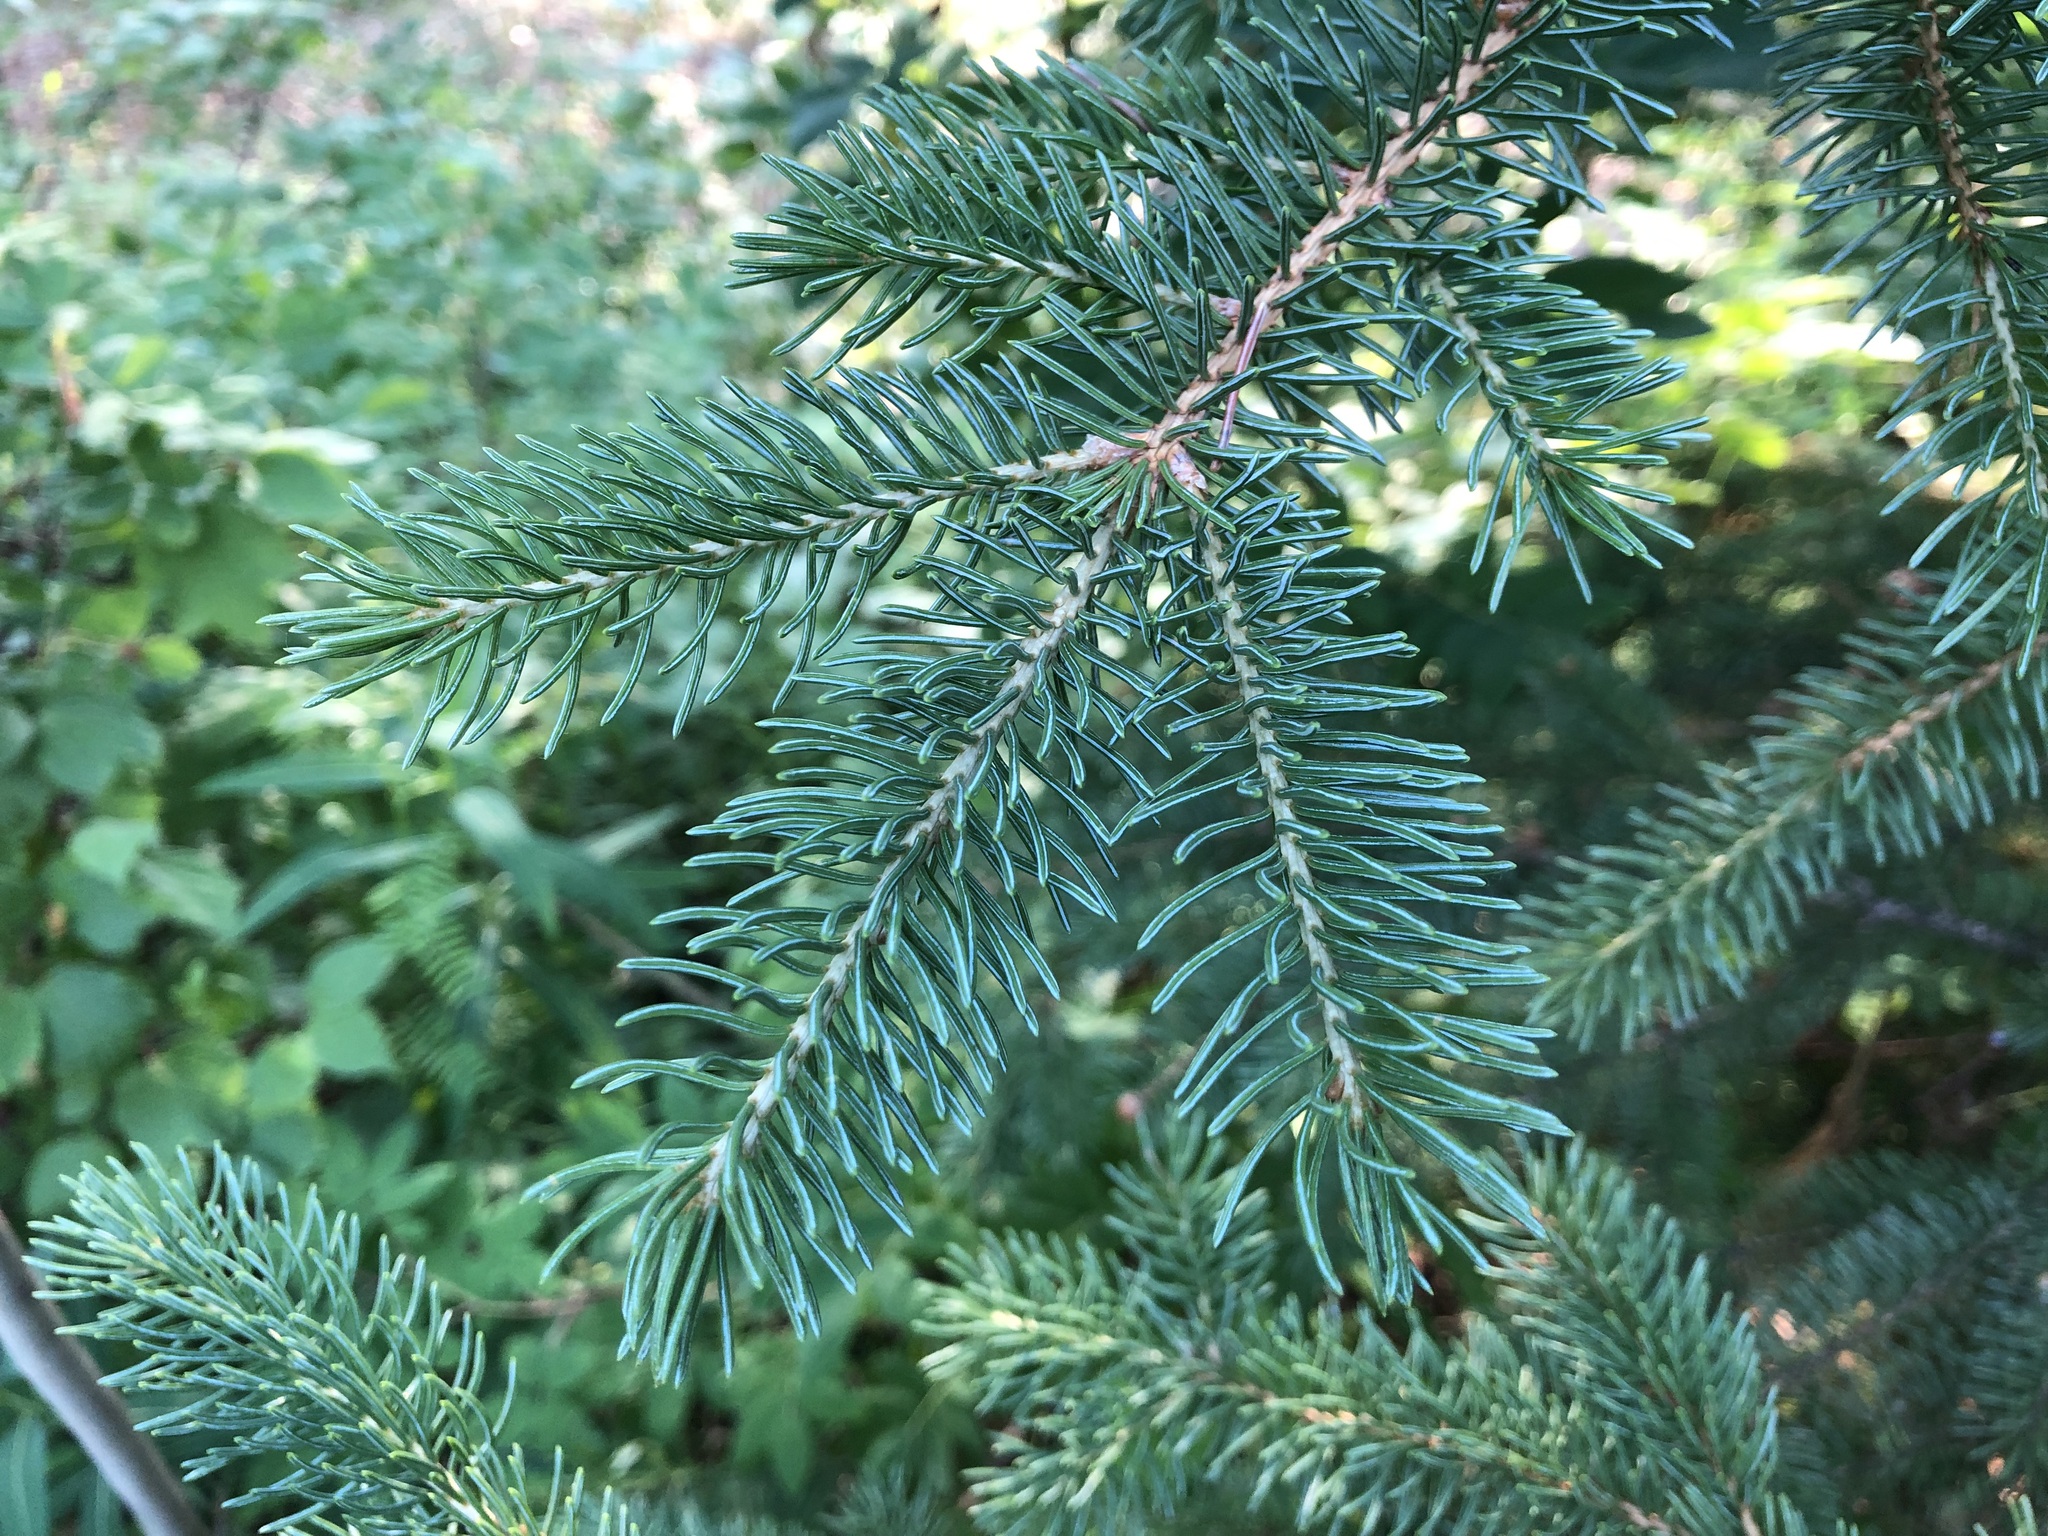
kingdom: Plantae
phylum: Tracheophyta
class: Pinopsida
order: Pinales
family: Pinaceae
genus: Picea
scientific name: Picea glauca
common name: White spruce
